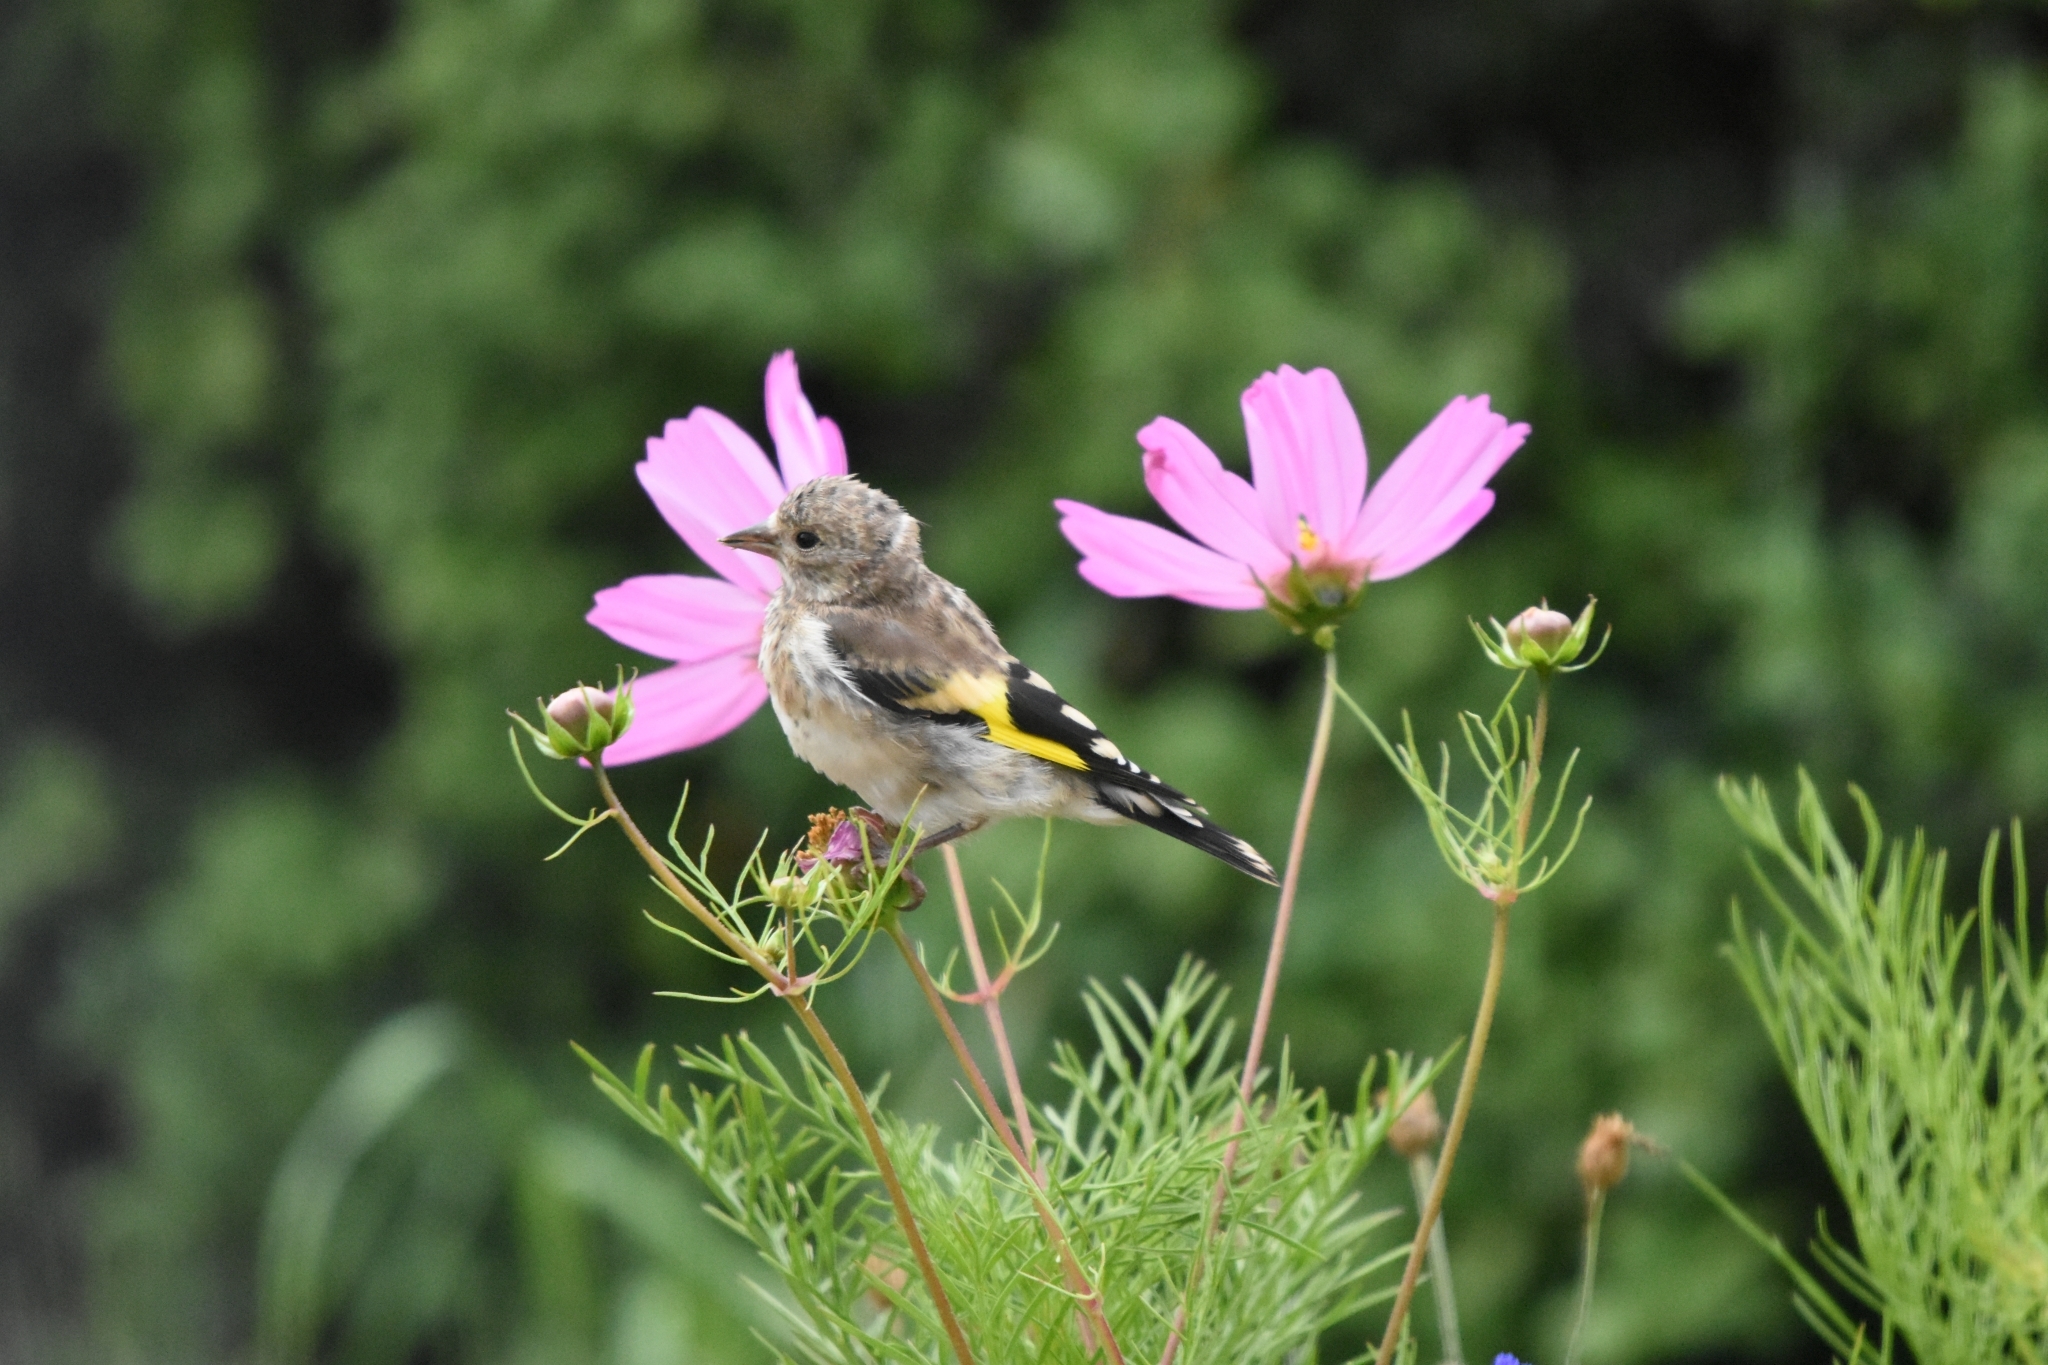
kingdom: Animalia
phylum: Chordata
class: Aves
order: Passeriformes
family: Fringillidae
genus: Carduelis
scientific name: Carduelis carduelis
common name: European goldfinch
